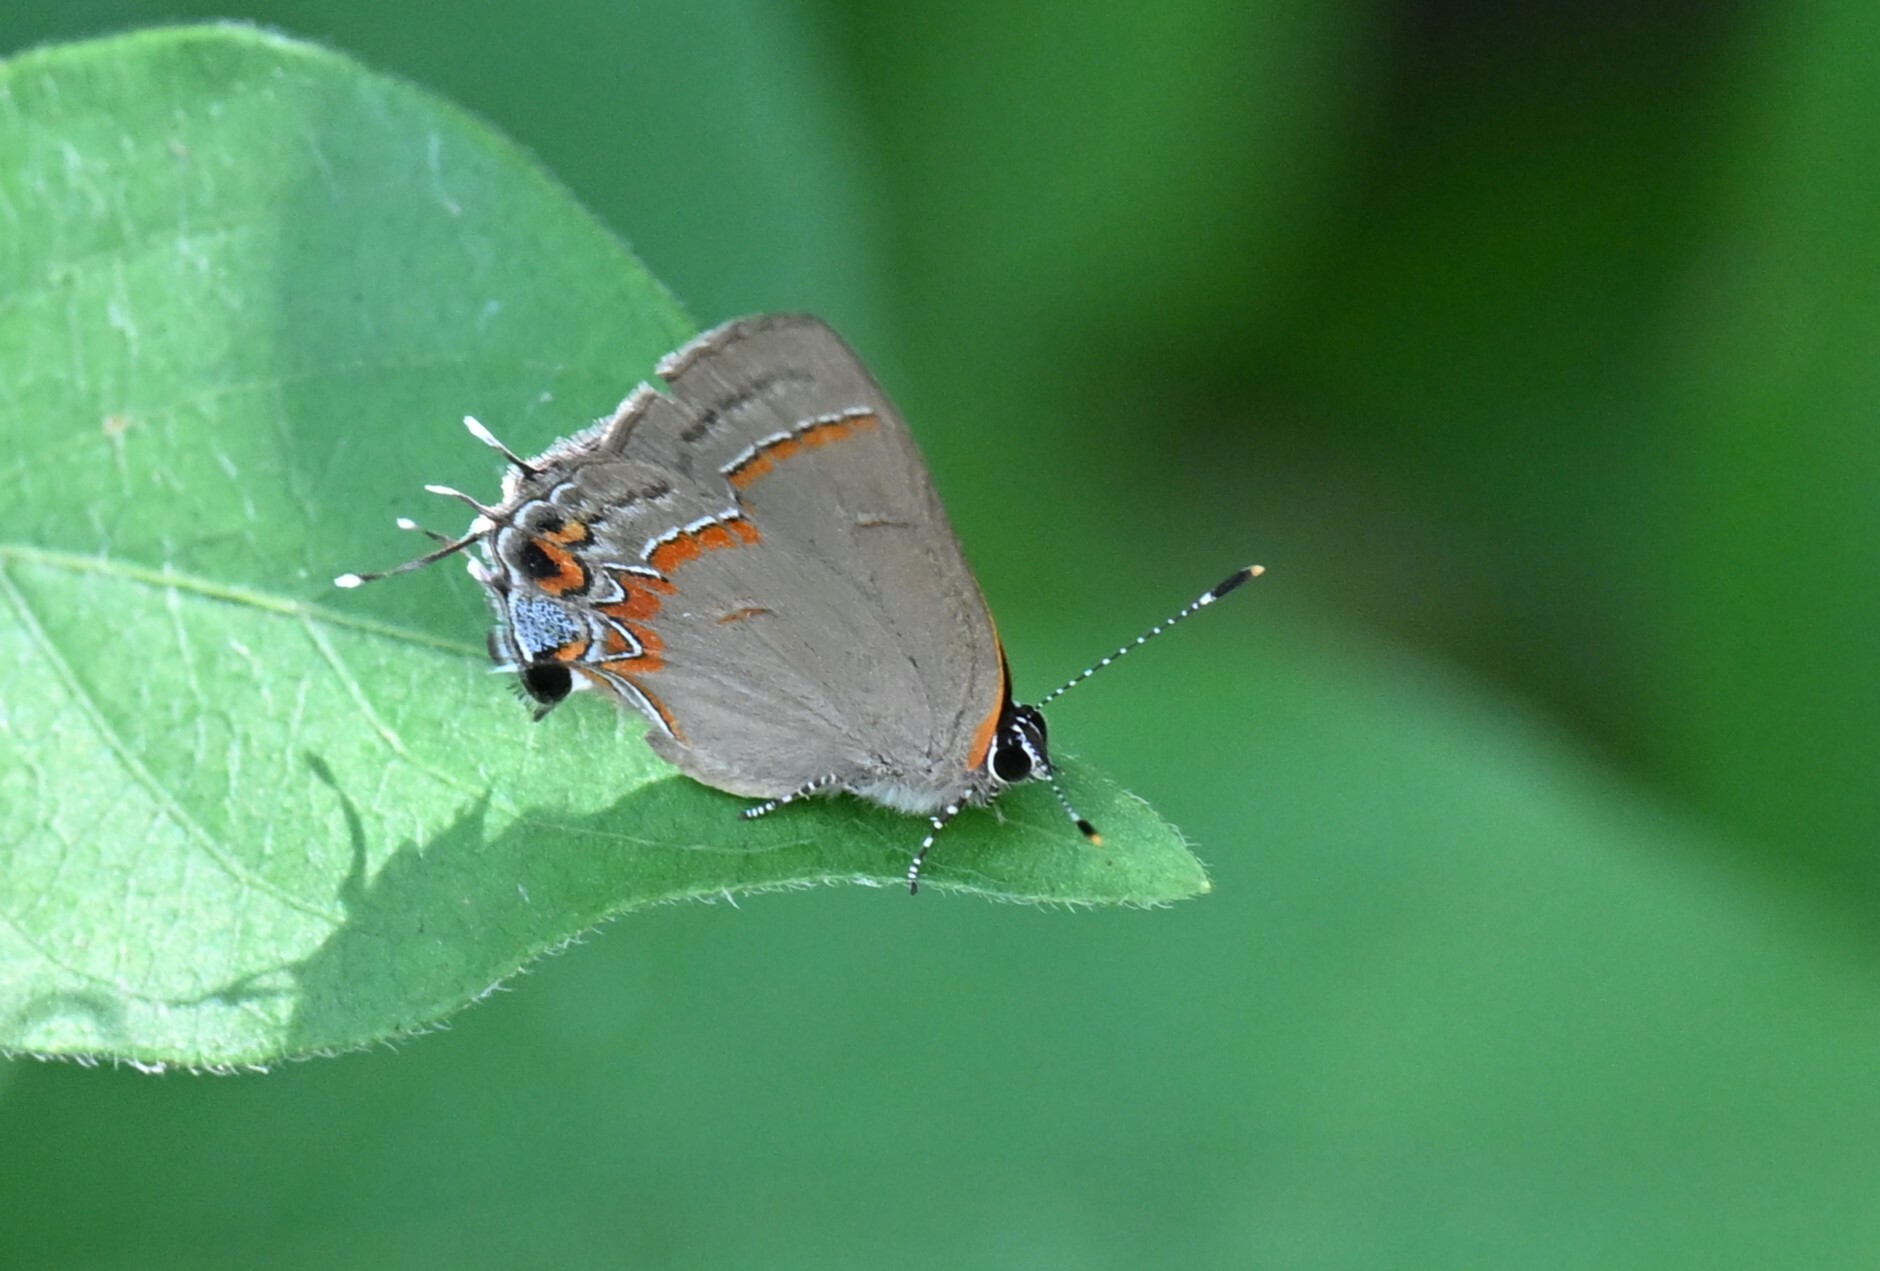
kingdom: Animalia
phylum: Arthropoda
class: Insecta
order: Lepidoptera
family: Lycaenidae
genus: Calycopis
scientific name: Calycopis cecrops
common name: Red-banded hairstreak
